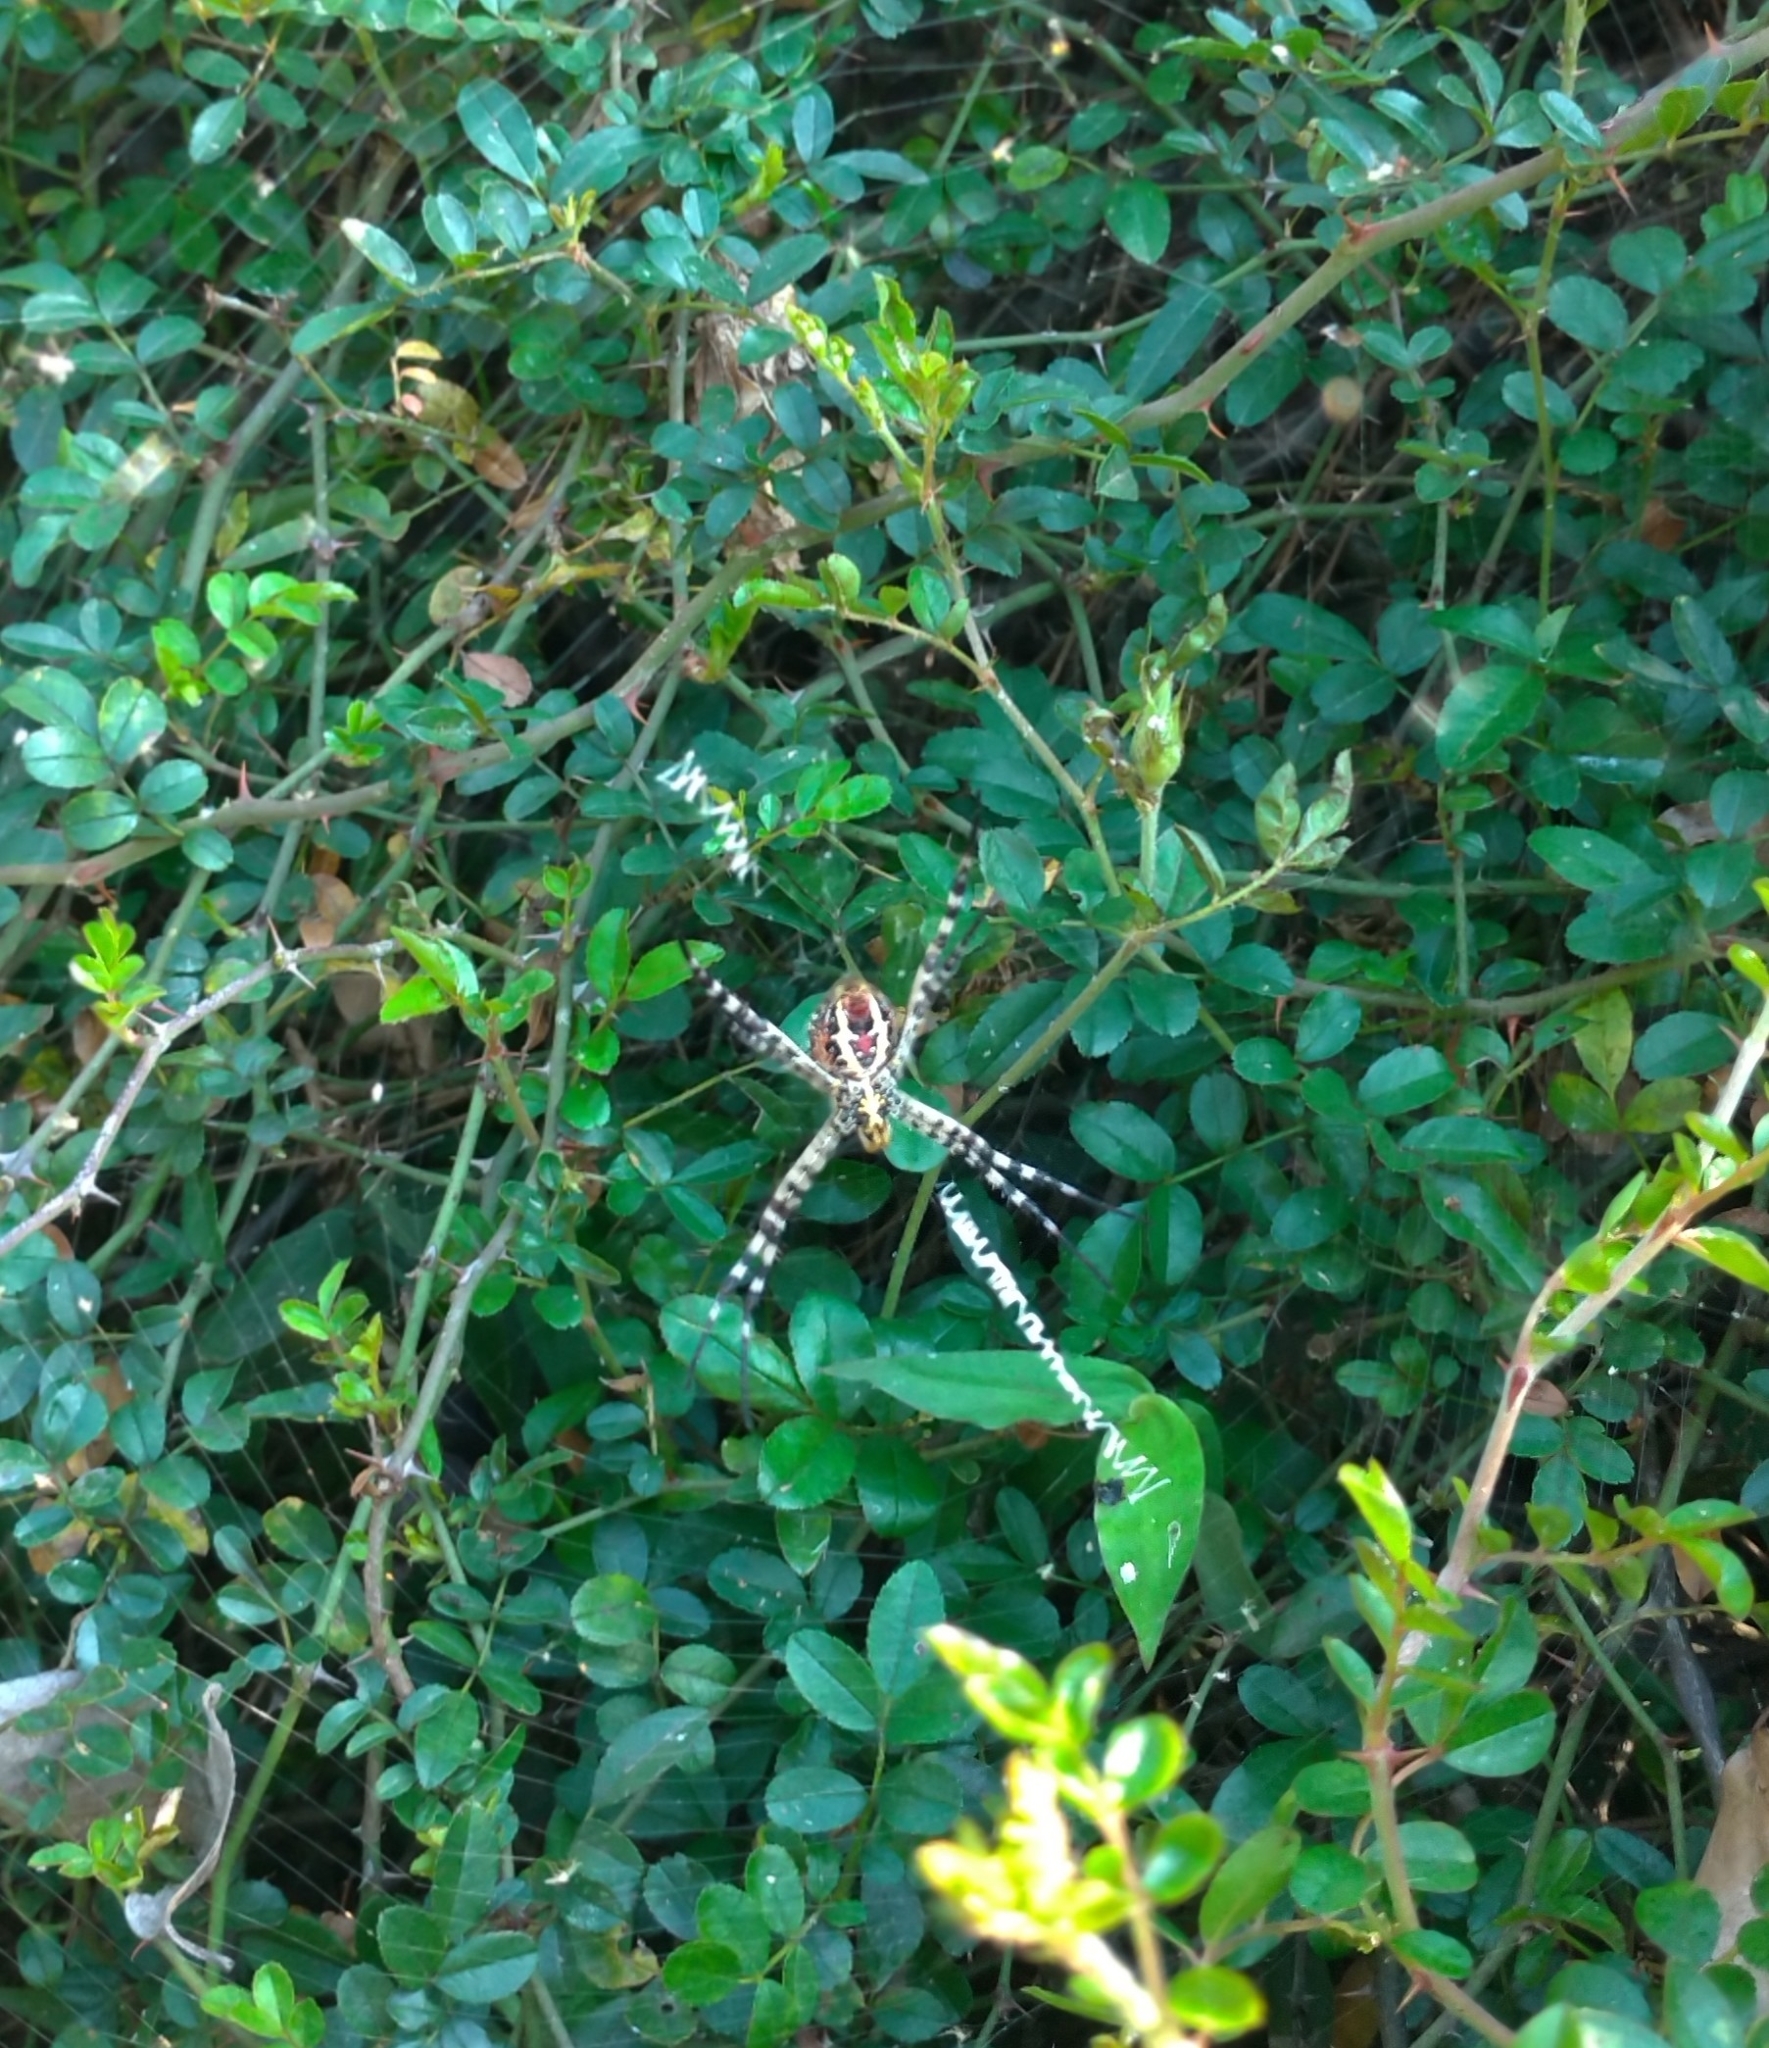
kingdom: Animalia
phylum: Arthropoda
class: Arachnida
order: Araneae
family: Araneidae
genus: Argiope
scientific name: Argiope aemula
